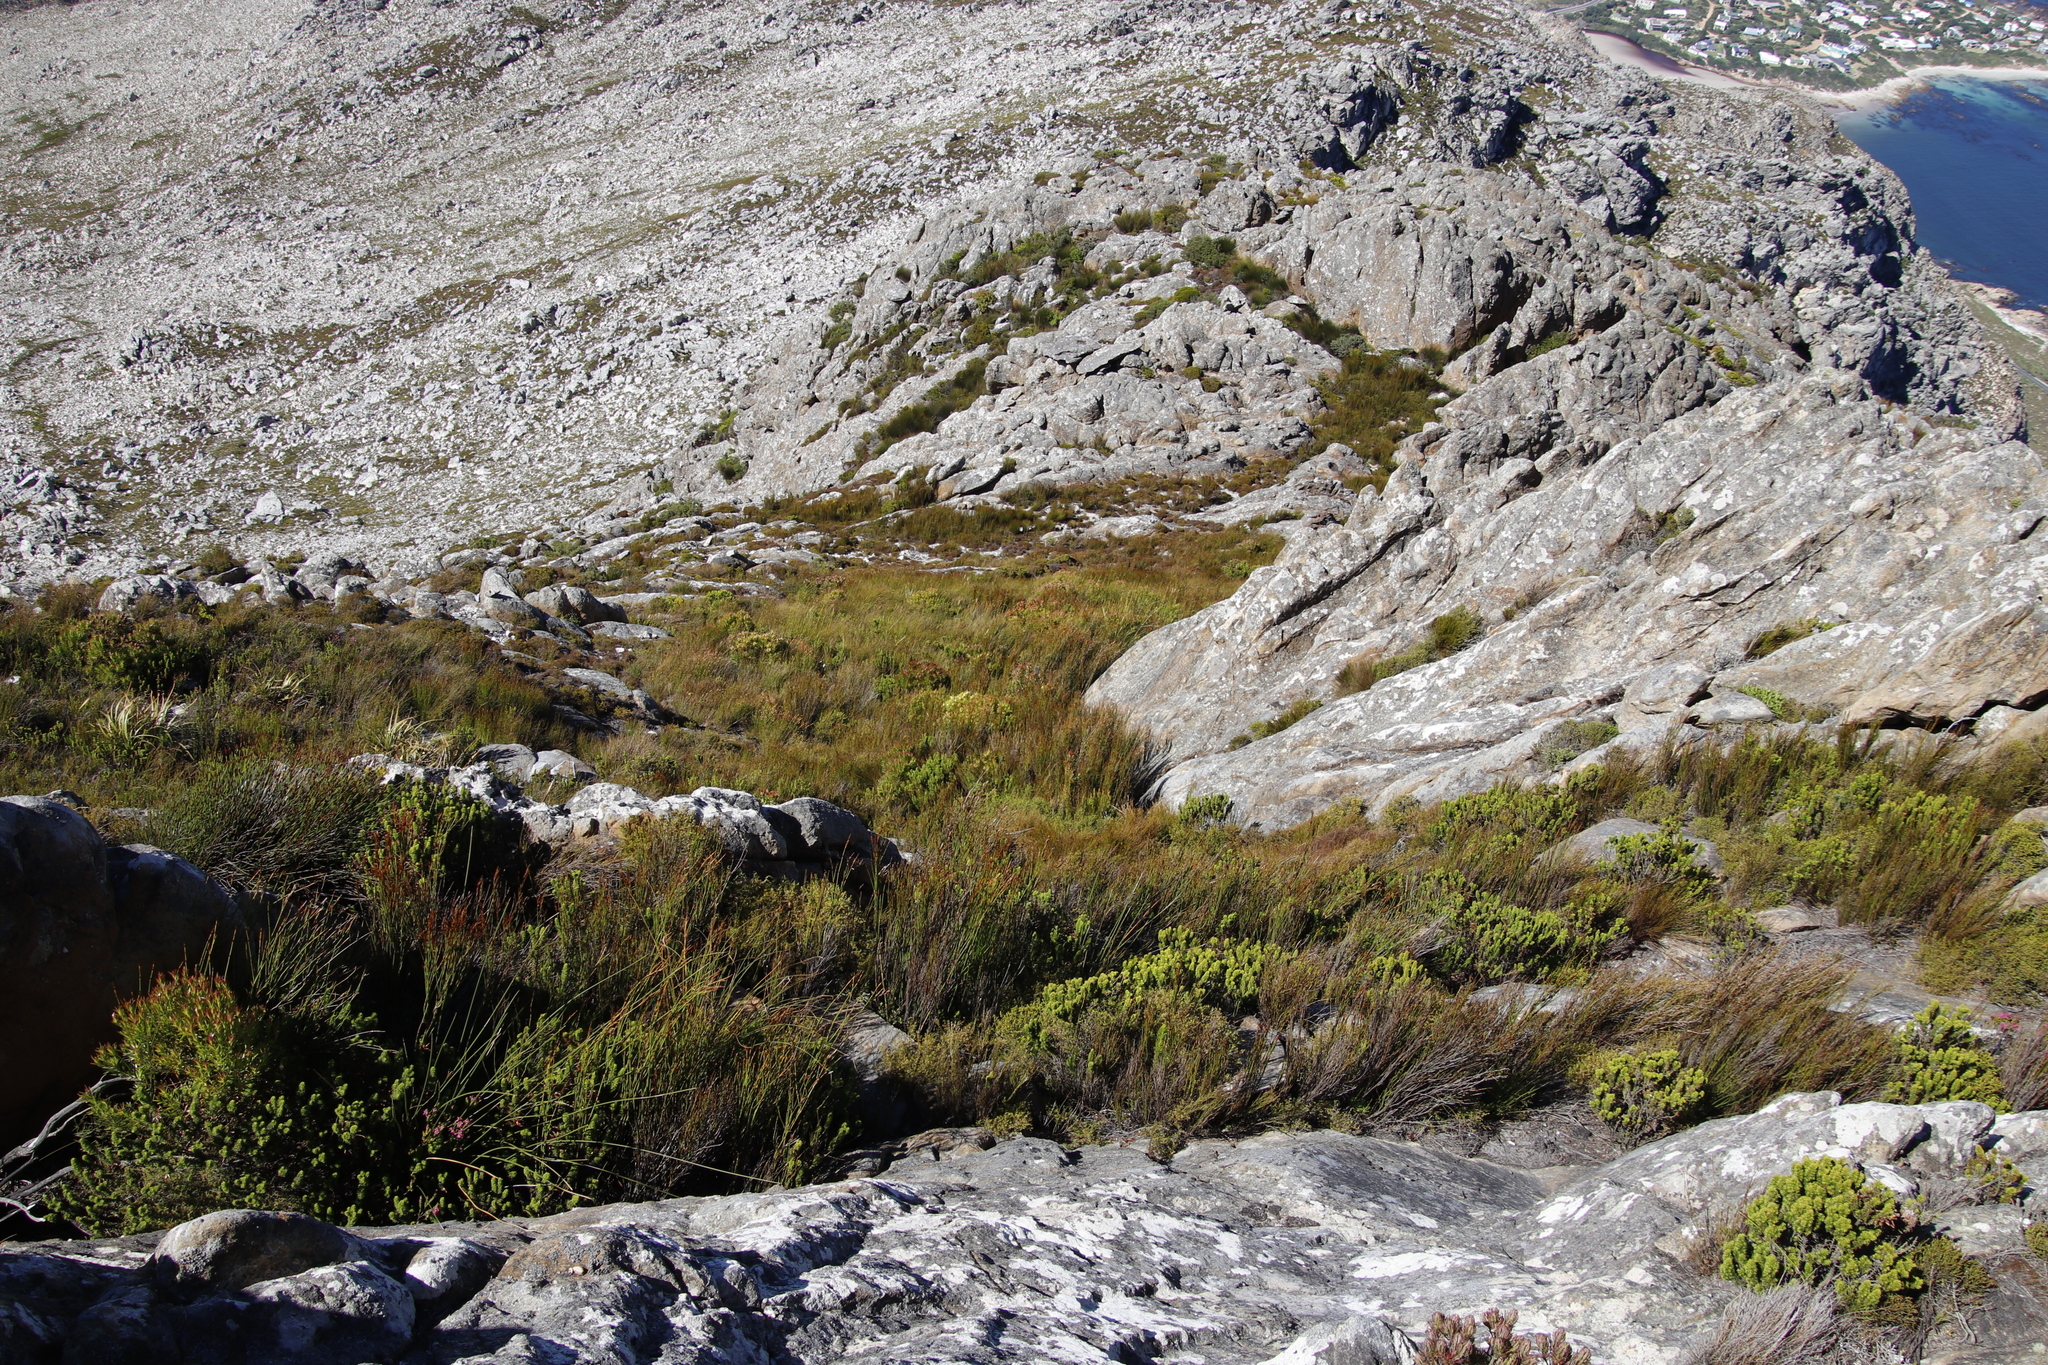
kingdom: Plantae
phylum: Tracheophyta
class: Magnoliopsida
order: Proteales
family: Proteaceae
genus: Leucadendron
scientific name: Leucadendron xanthoconus
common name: Sickle-leaf conebush
